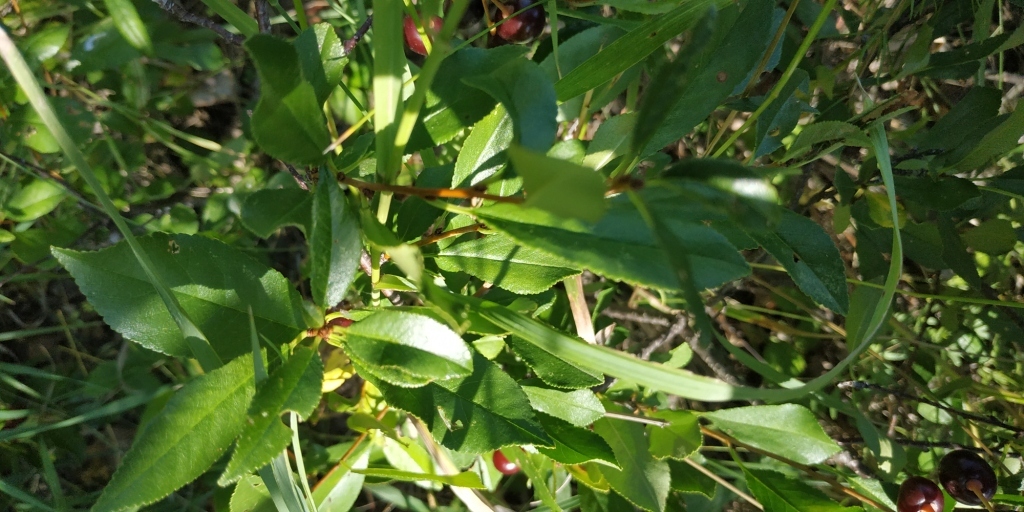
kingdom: Plantae
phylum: Tracheophyta
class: Magnoliopsida
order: Rosales
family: Rosaceae
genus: Prunus
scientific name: Prunus fruticosa
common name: European dwarf cherry
